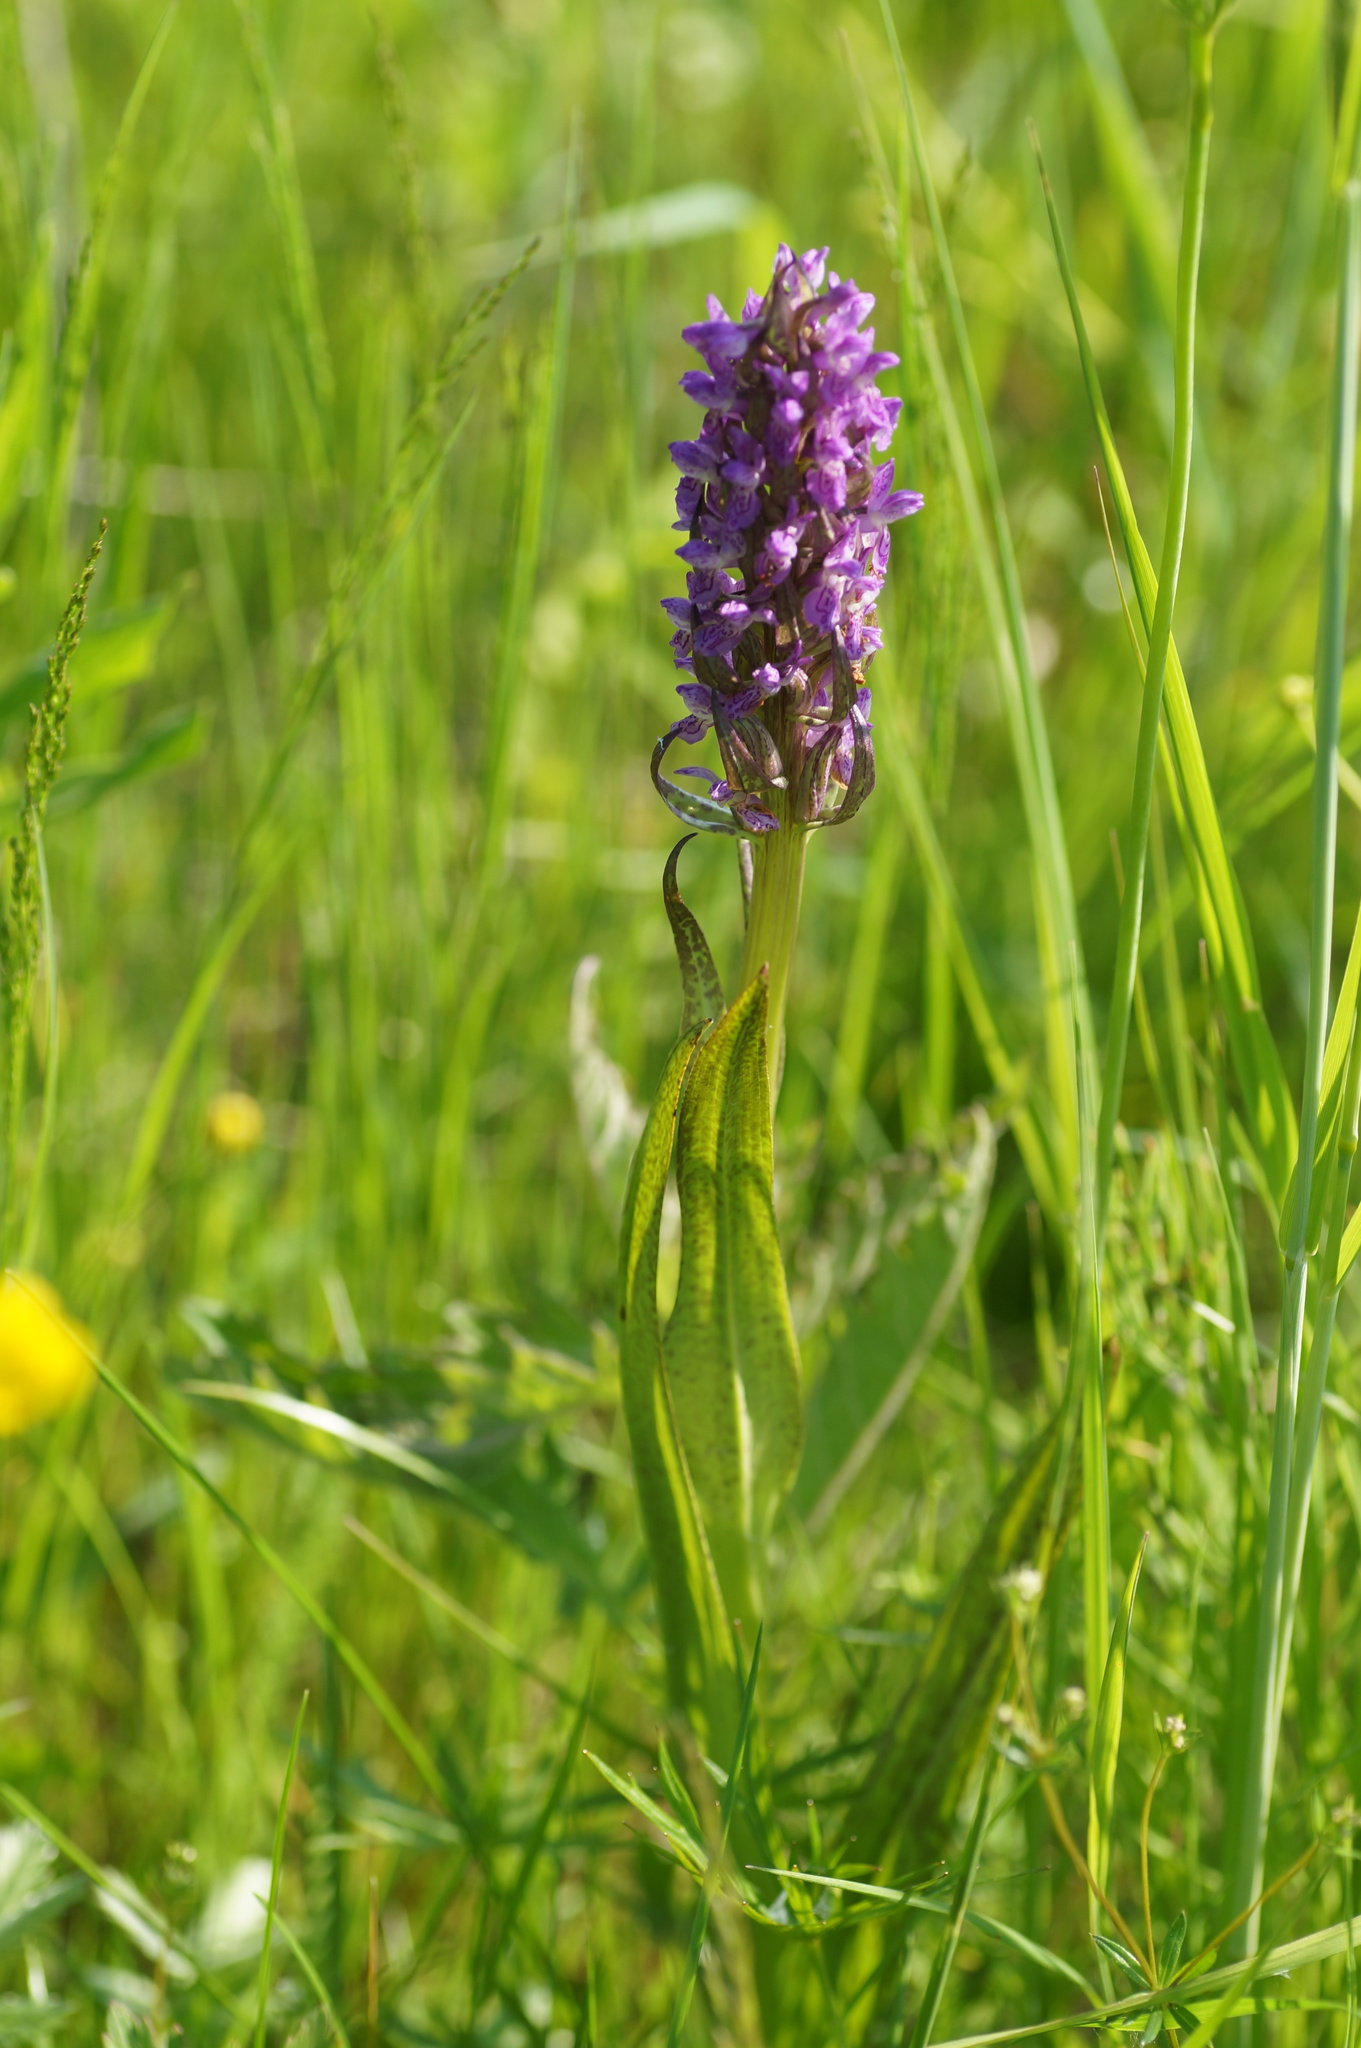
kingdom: Plantae
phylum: Tracheophyta
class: Liliopsida
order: Asparagales
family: Orchidaceae
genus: Dactylorhiza
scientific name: Dactylorhiza incarnata
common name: Early marsh-orchid
